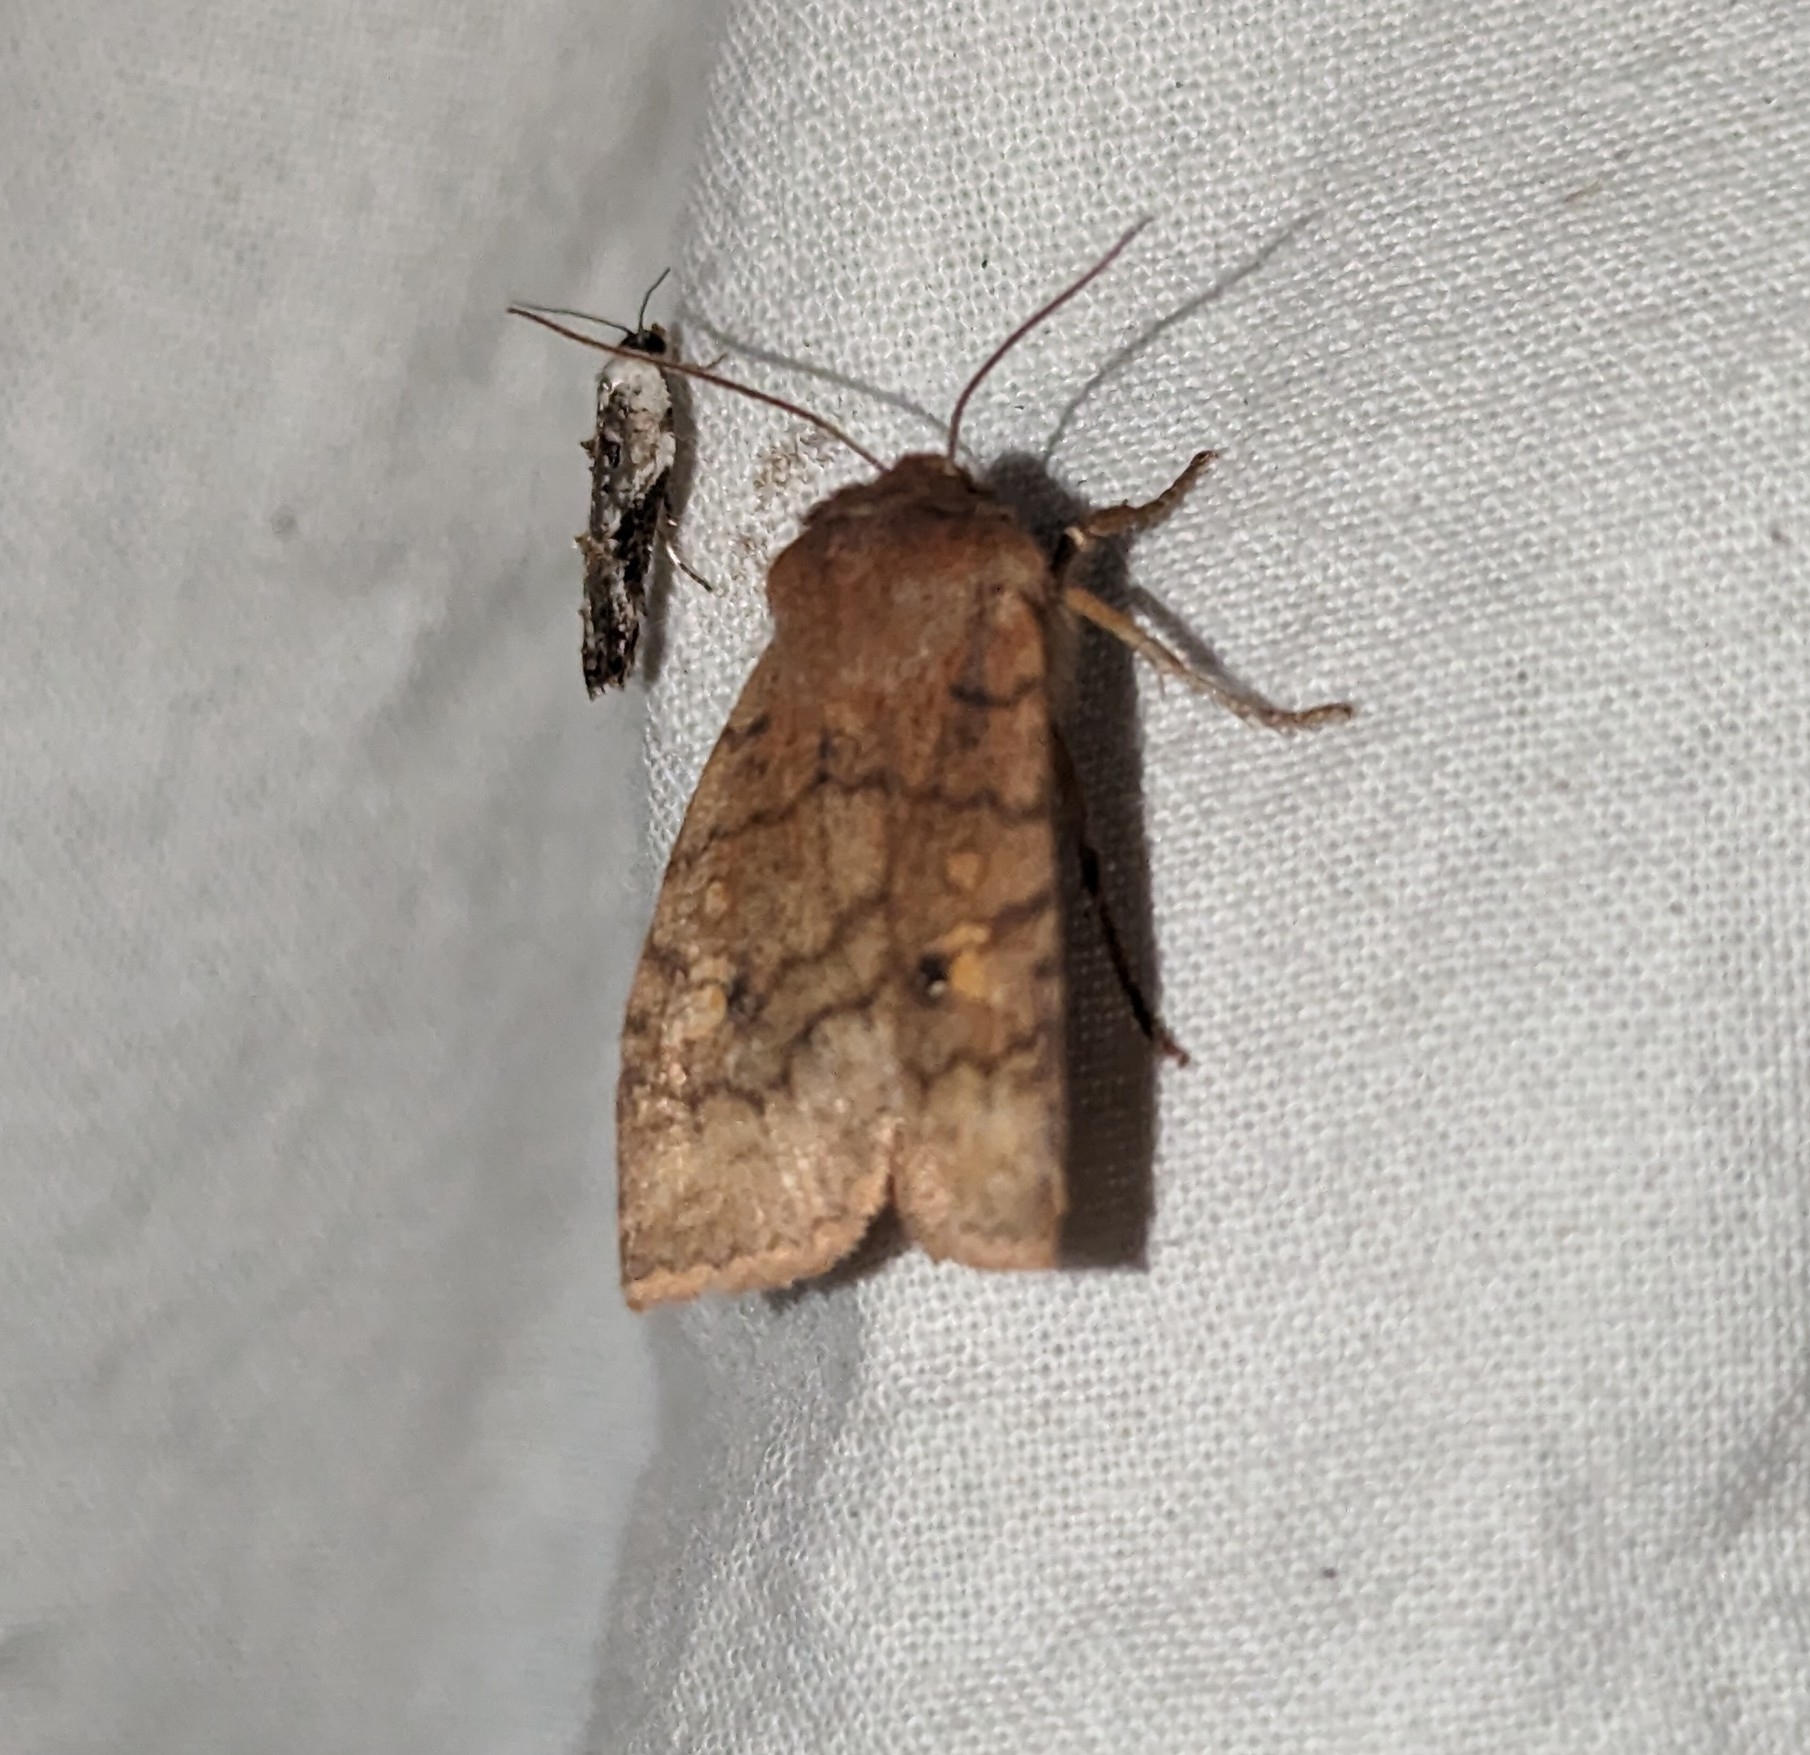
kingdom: Animalia
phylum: Arthropoda
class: Insecta
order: Lepidoptera
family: Noctuidae
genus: Eupsilia
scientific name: Eupsilia tristigmata
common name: Three-spotted sallow
